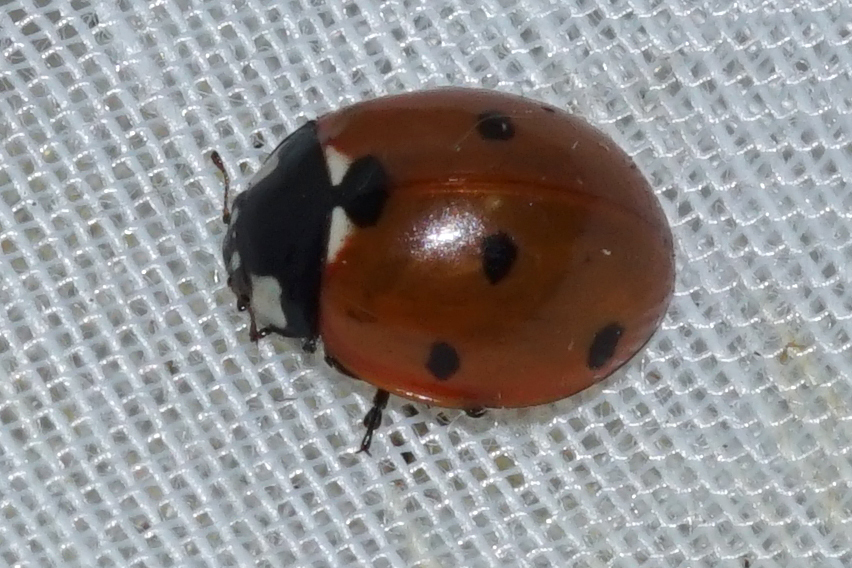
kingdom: Animalia
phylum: Arthropoda
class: Insecta
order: Coleoptera
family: Coccinellidae
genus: Coccinella
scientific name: Coccinella septempunctata
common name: Sevenspotted lady beetle
